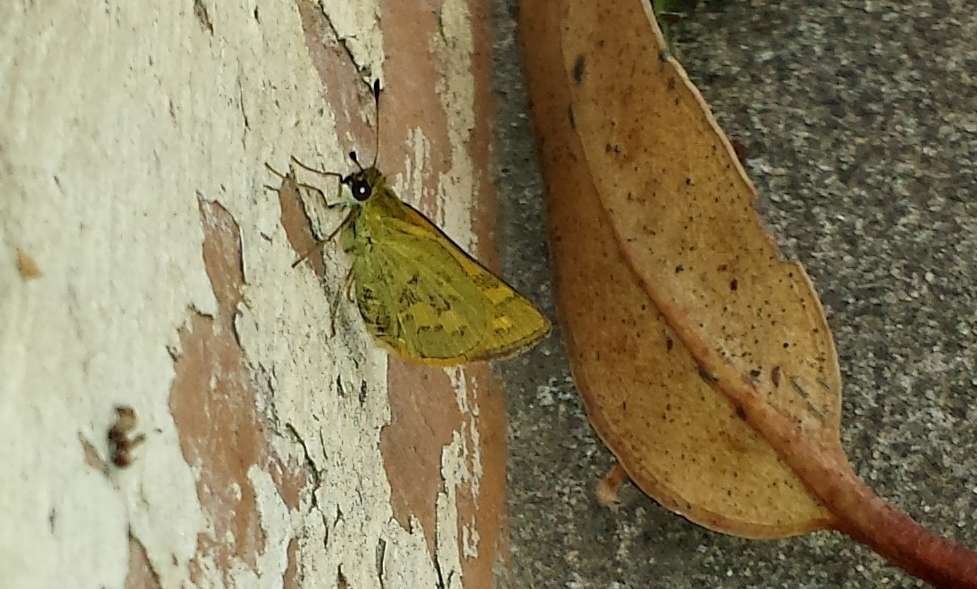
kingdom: Animalia
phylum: Arthropoda
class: Insecta
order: Lepidoptera
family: Hesperiidae
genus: Ocybadistes
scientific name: Ocybadistes walkeri
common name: Yellow-banded dart
